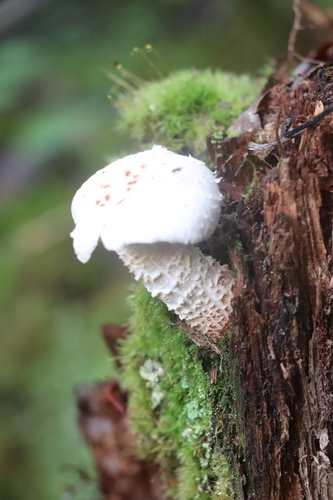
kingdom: Fungi
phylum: Basidiomycota
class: Agaricomycetes
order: Gloeophyllales
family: Gloeophyllaceae
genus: Neolentinus
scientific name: Neolentinus lepideus
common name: Scaly sawgill
